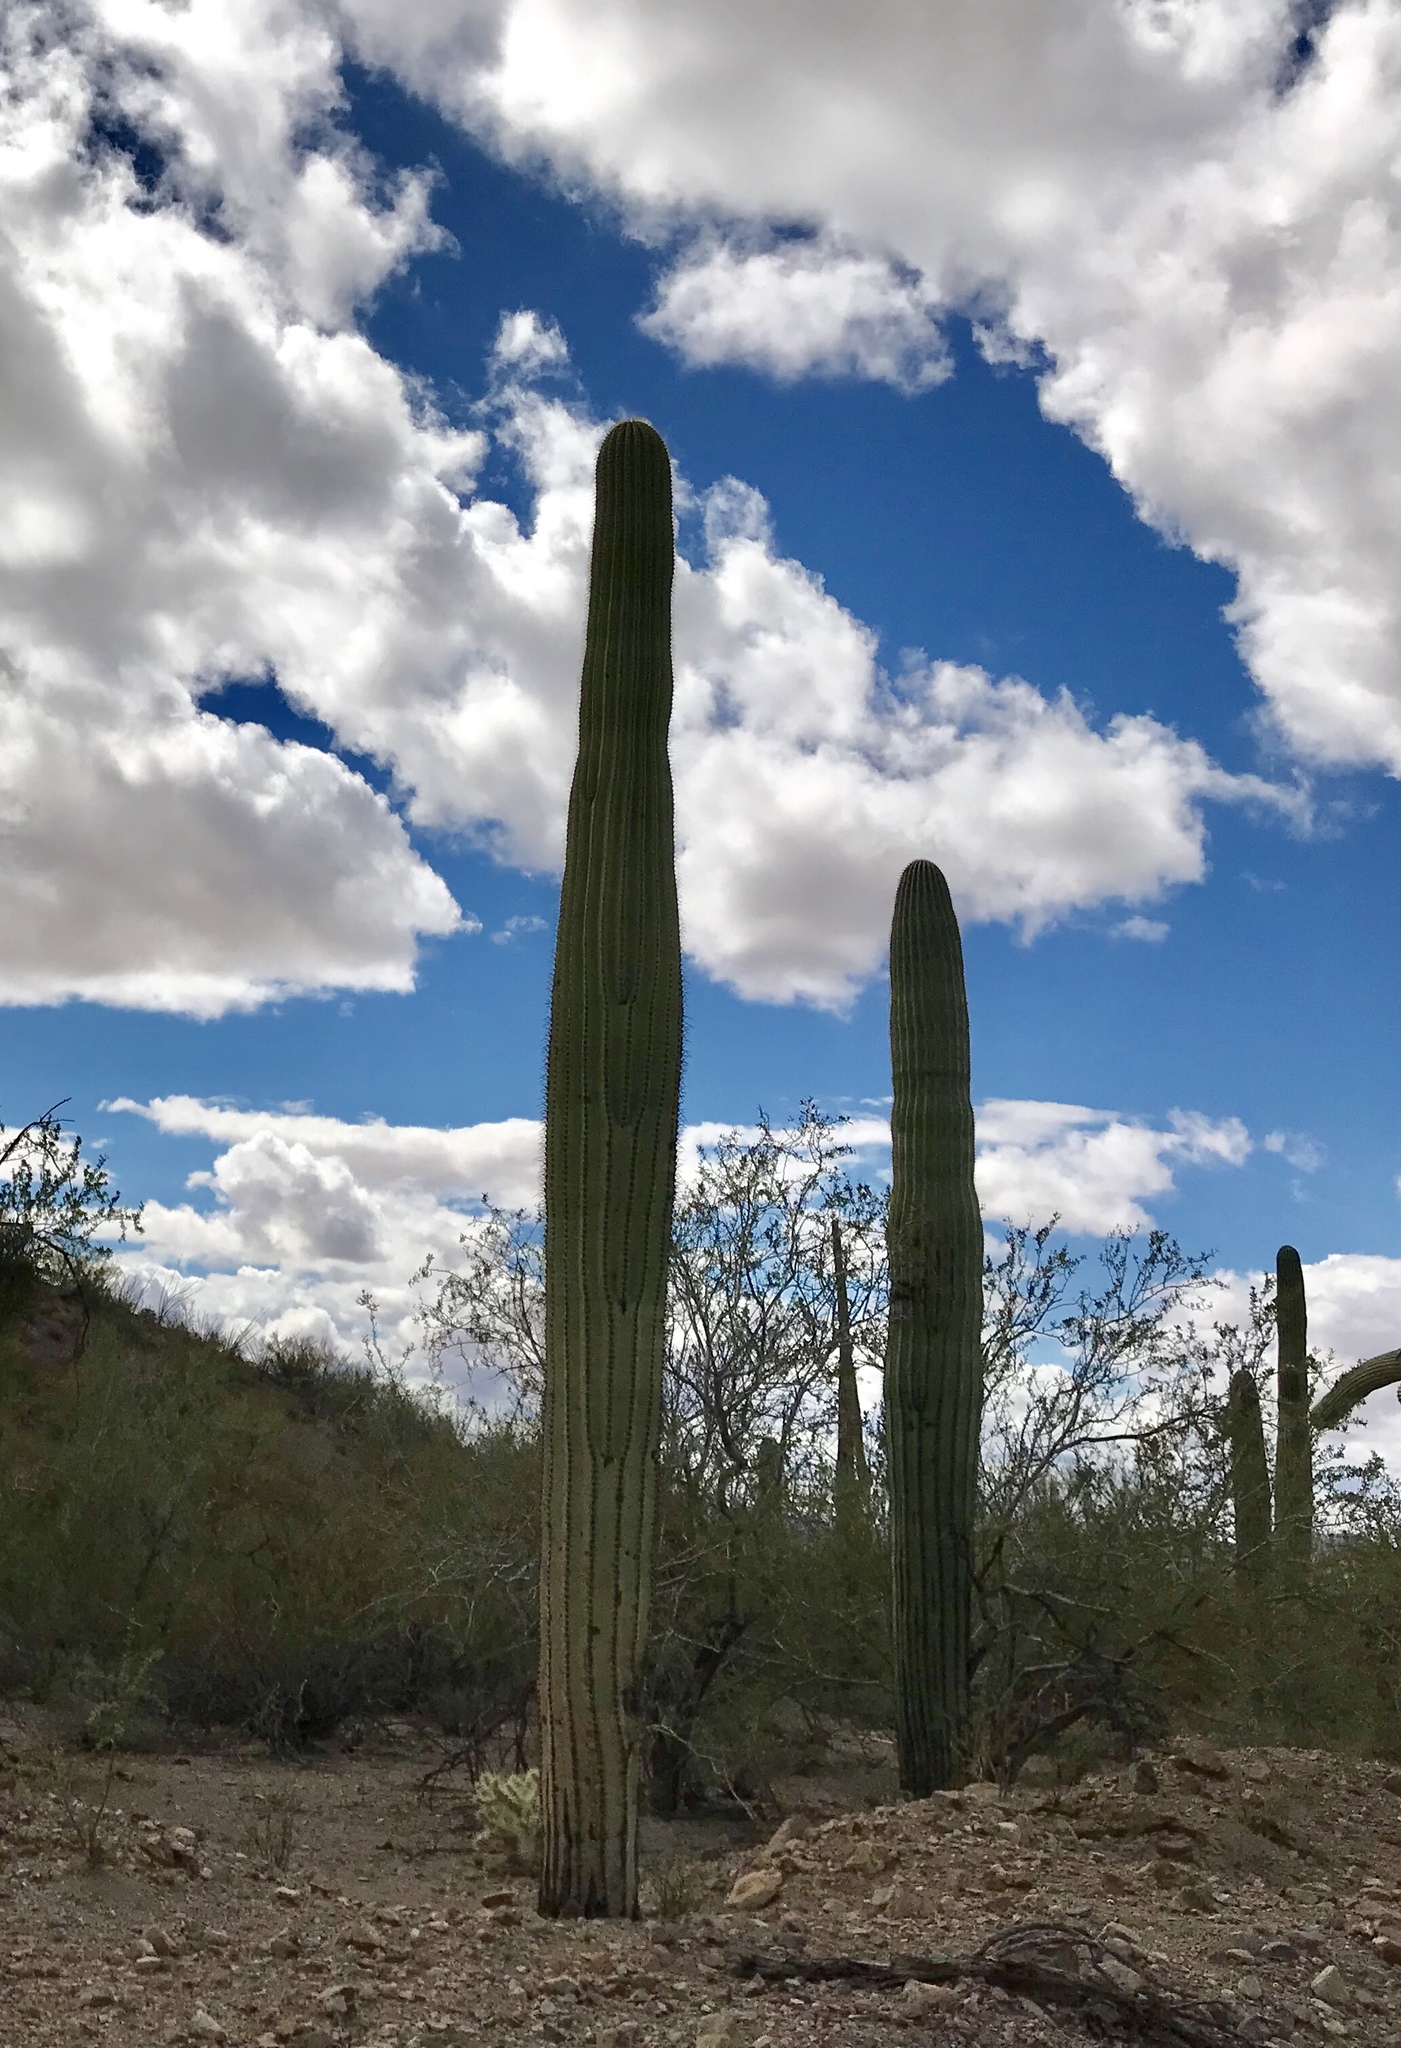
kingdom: Plantae
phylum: Tracheophyta
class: Magnoliopsida
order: Caryophyllales
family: Cactaceae
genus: Carnegiea
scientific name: Carnegiea gigantea
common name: Saguaro
